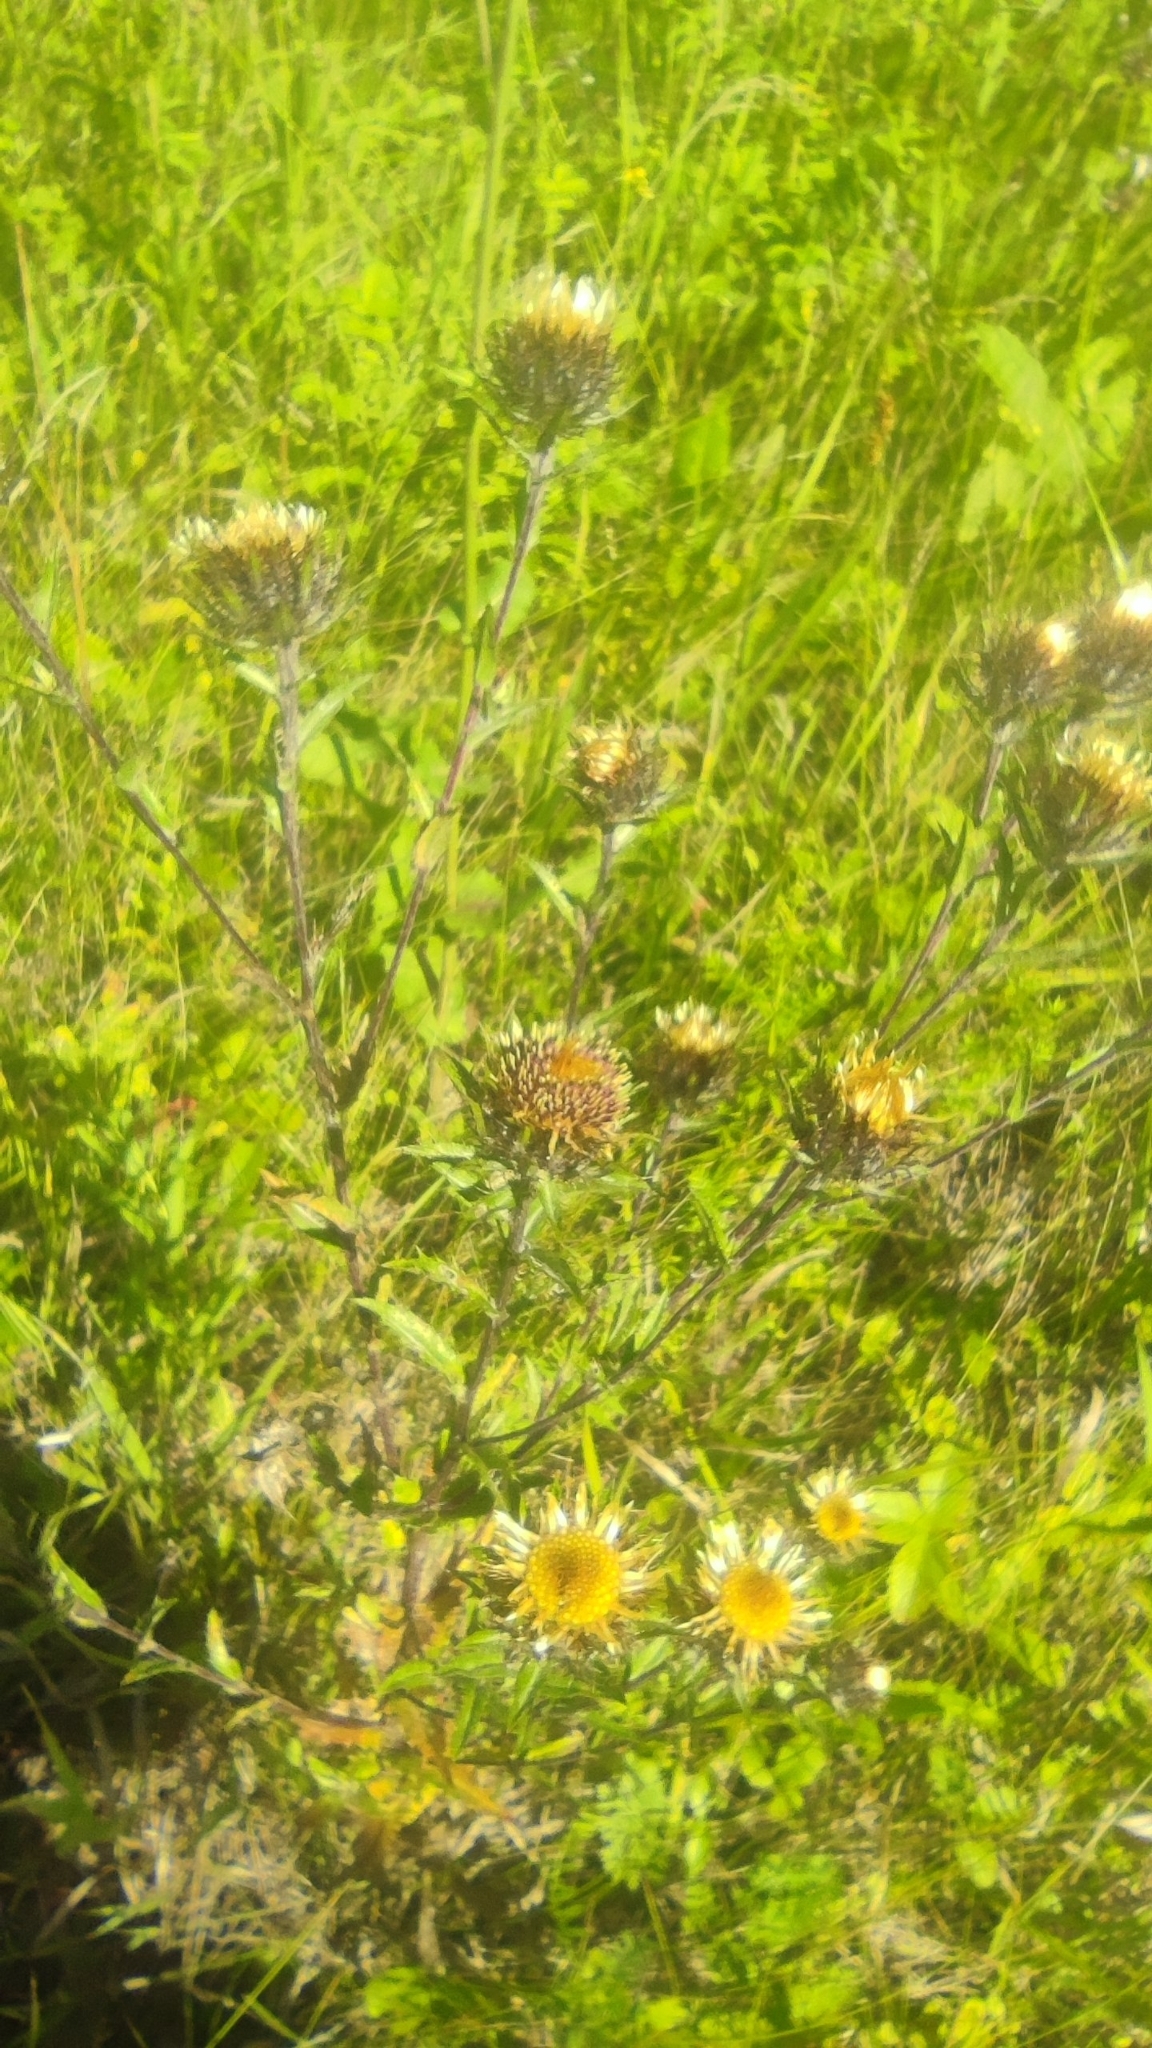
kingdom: Plantae
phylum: Tracheophyta
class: Magnoliopsida
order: Asterales
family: Asteraceae
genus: Carlina
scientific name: Carlina biebersteinii
